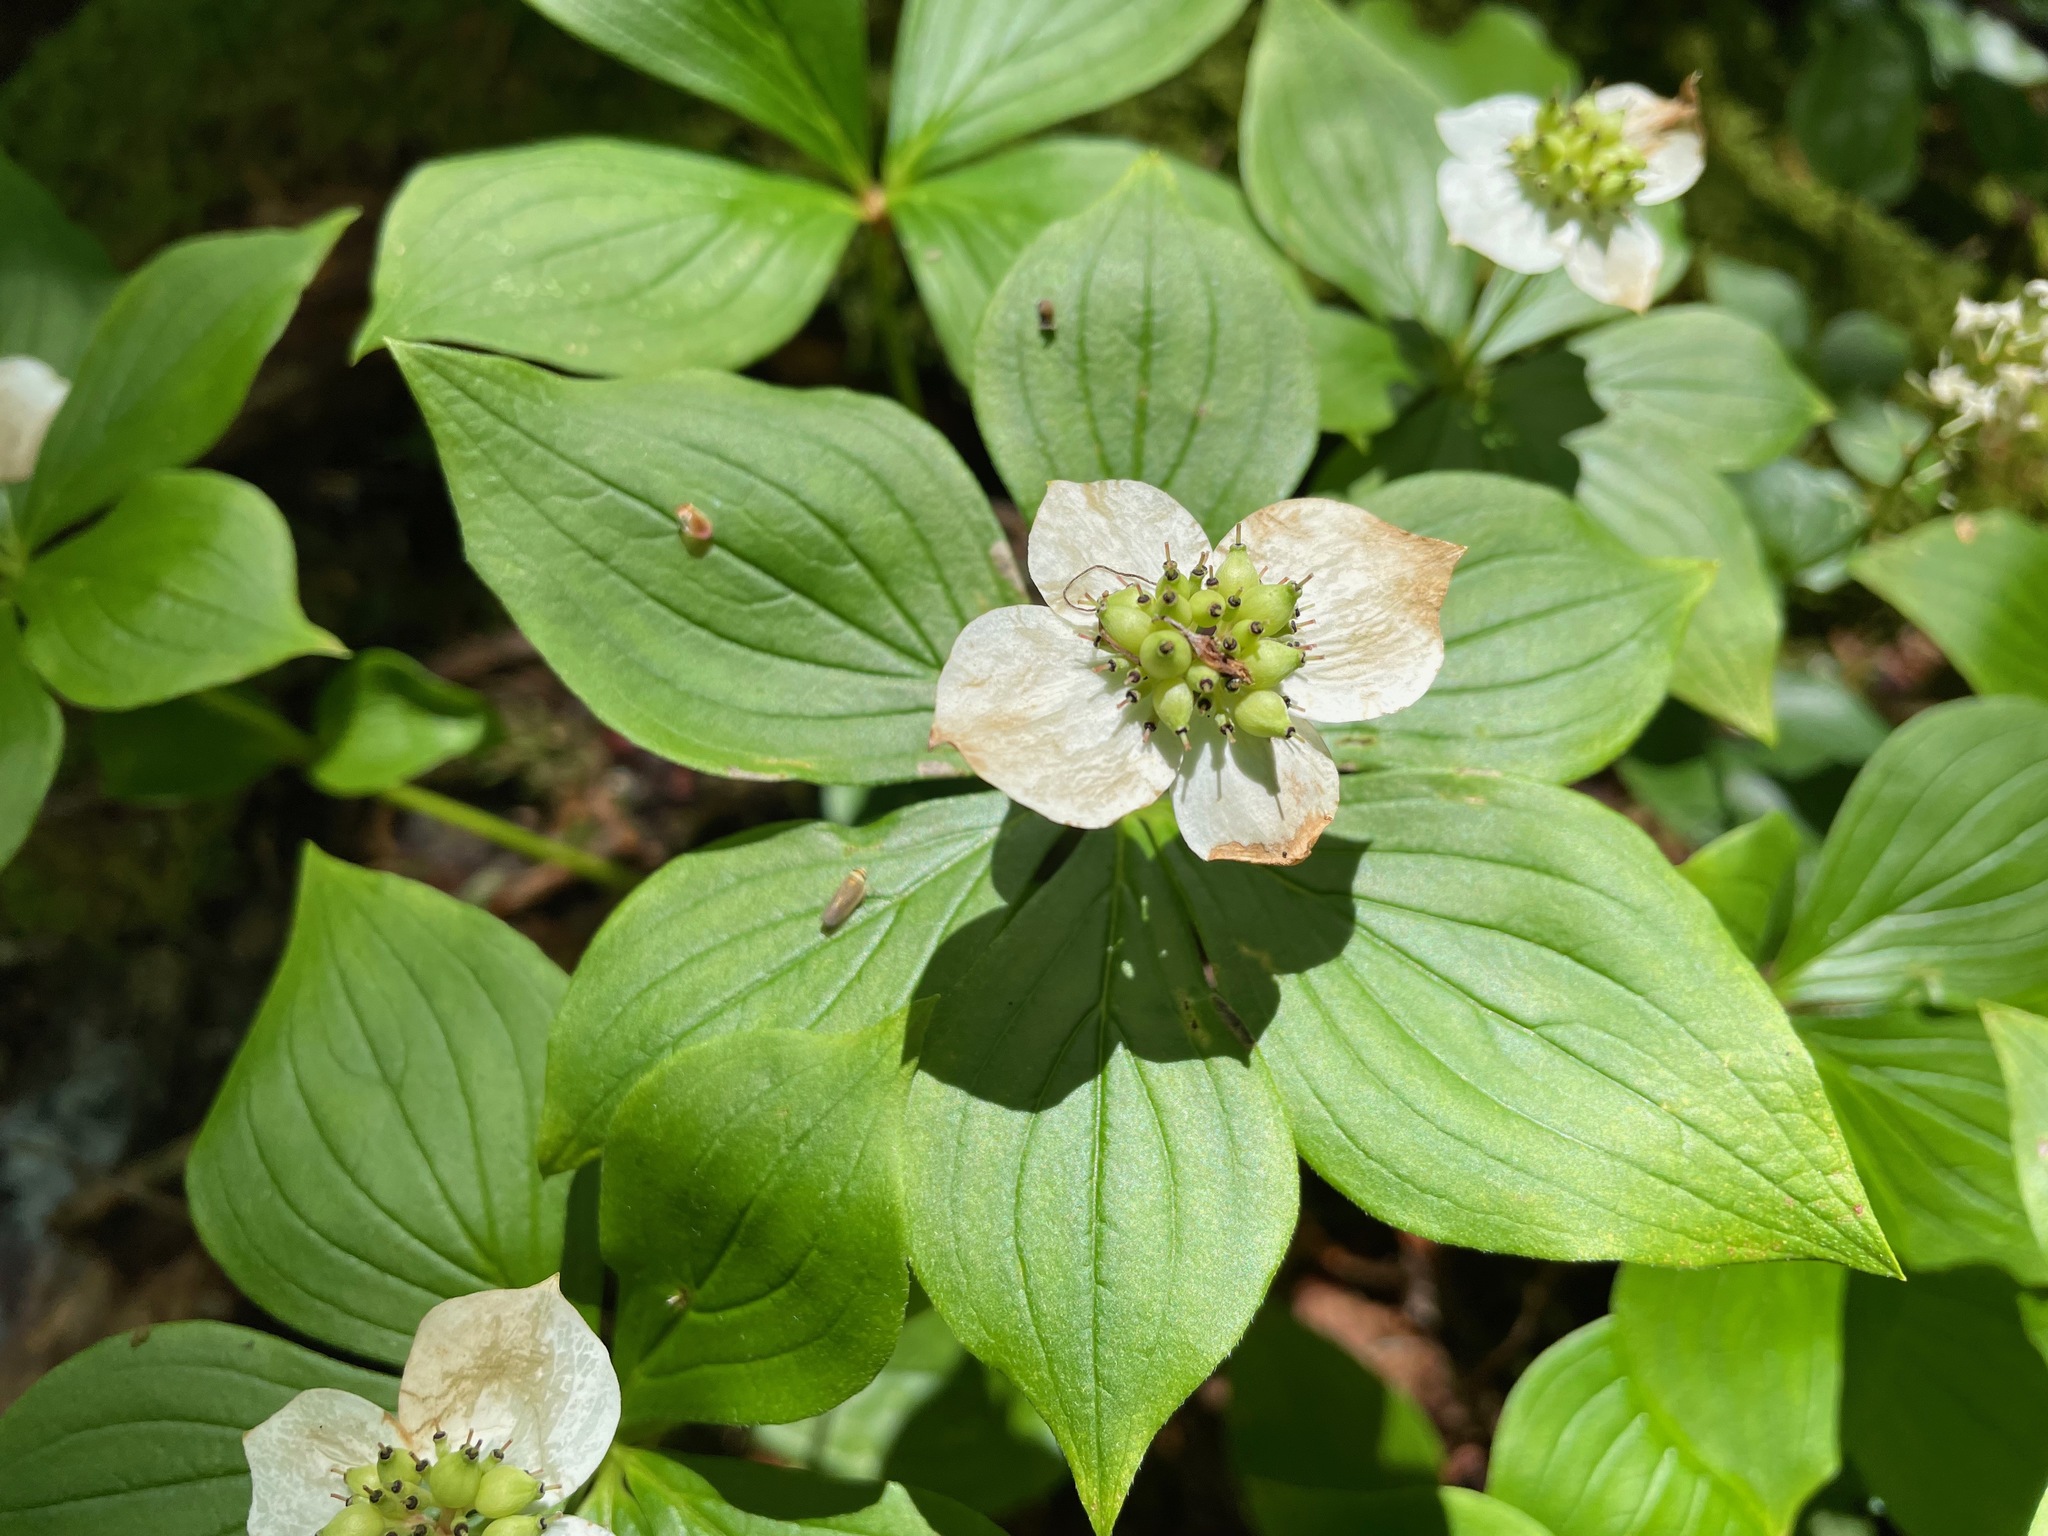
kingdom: Plantae
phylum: Tracheophyta
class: Magnoliopsida
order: Cornales
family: Cornaceae
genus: Cornus
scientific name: Cornus canadensis
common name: Creeping dogwood
